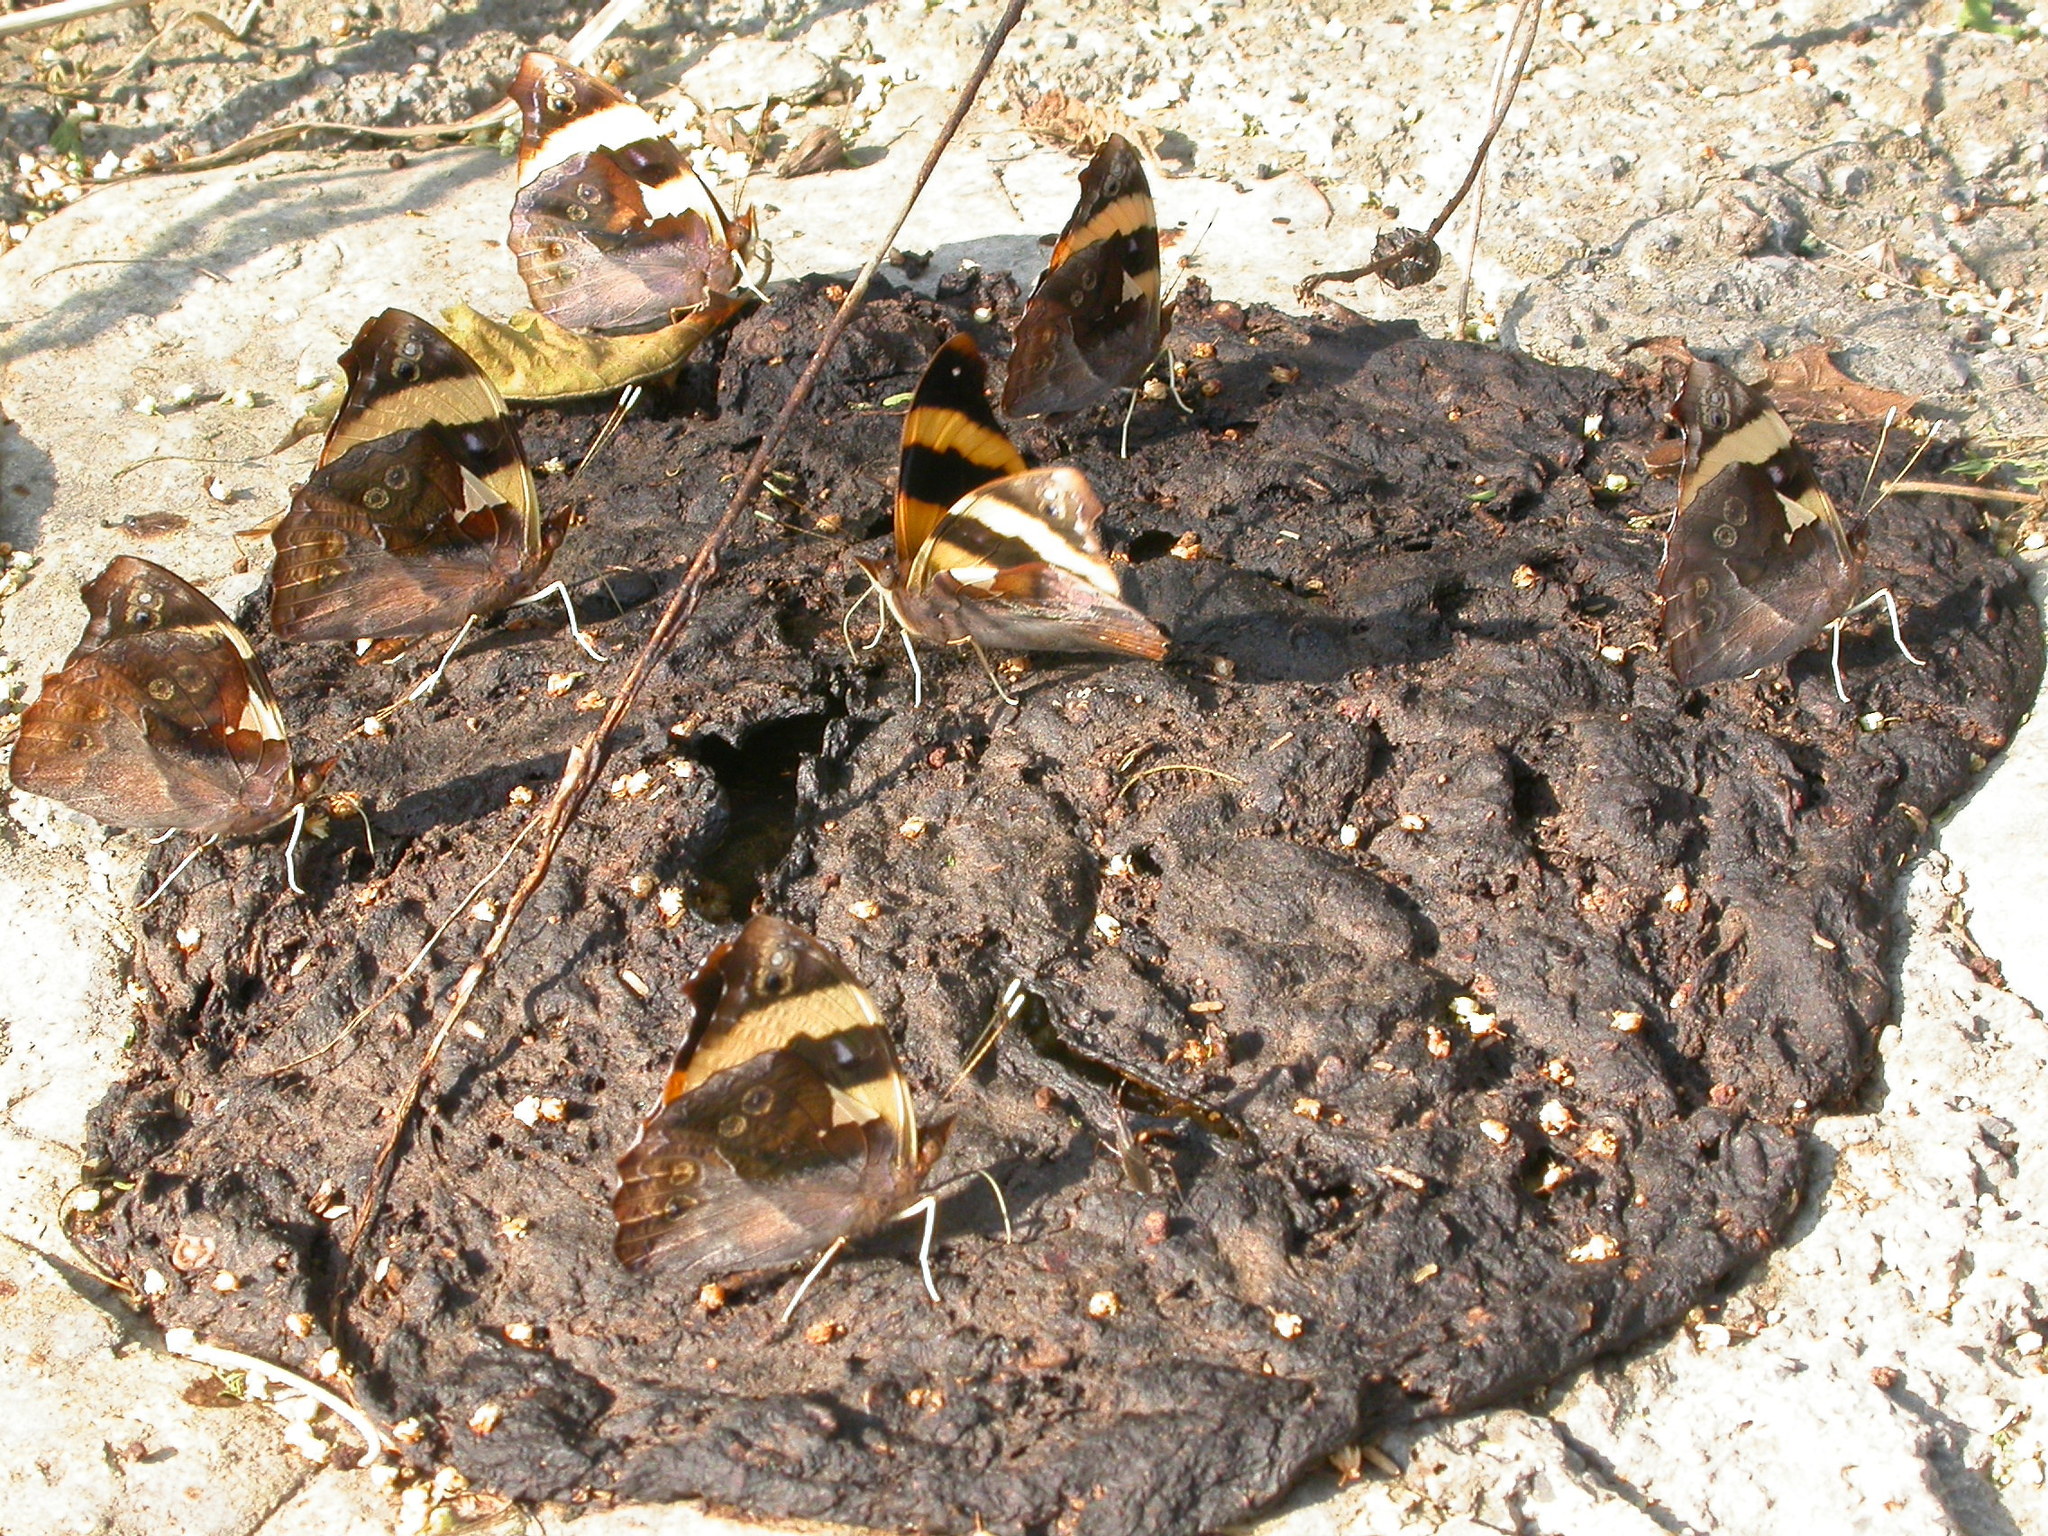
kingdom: Animalia
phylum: Arthropoda
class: Insecta
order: Lepidoptera
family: Nymphalidae
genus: Epiphile
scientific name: Epiphile adrasta
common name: Common banner
